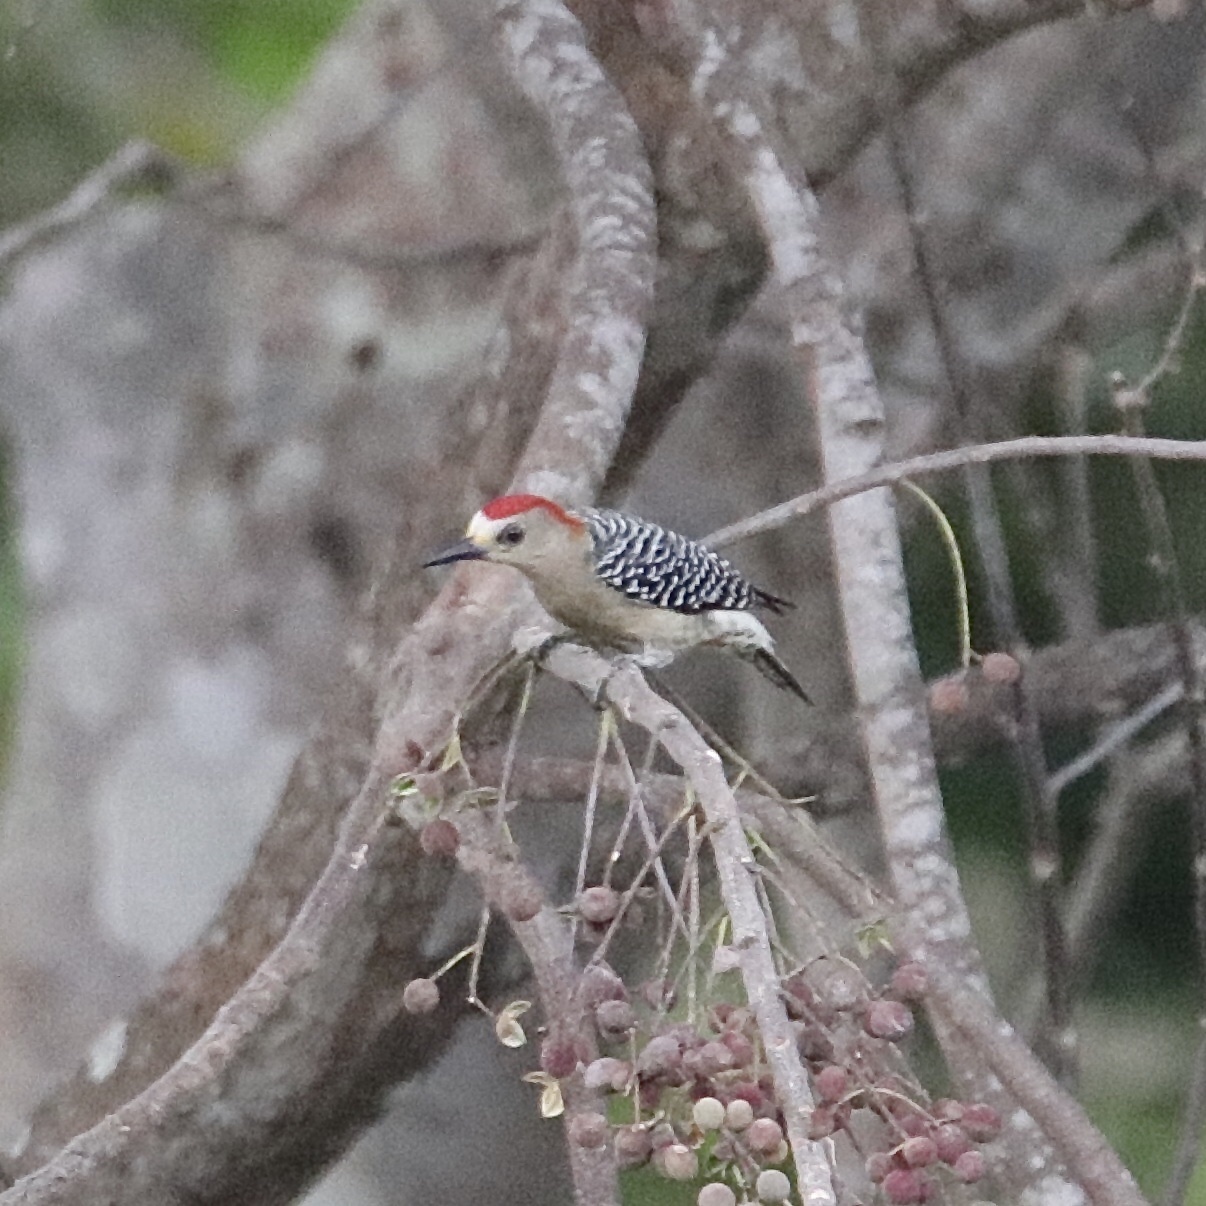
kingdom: Animalia
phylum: Chordata
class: Aves
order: Piciformes
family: Picidae
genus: Melanerpes
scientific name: Melanerpes rubricapillus
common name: Red-crowned woodpecker
